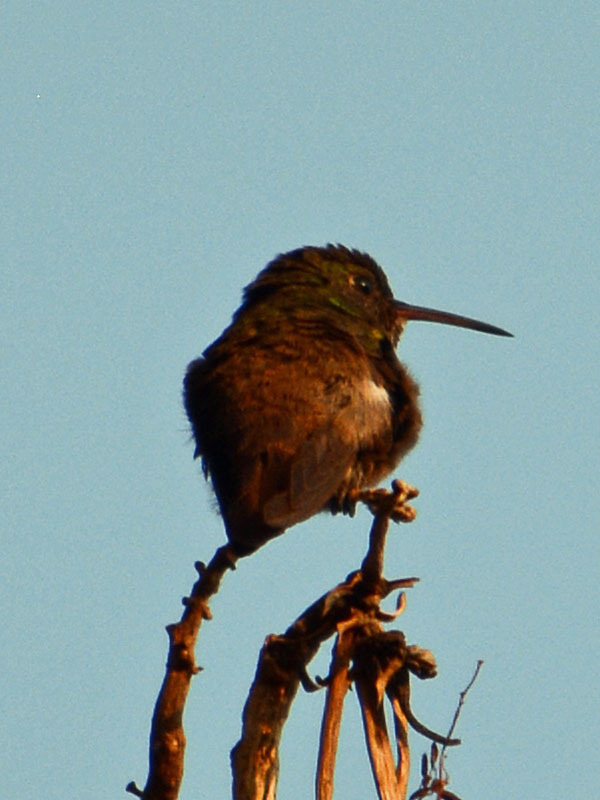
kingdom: Animalia
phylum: Chordata
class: Aves
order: Apodiformes
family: Trochilidae
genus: Saucerottia
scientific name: Saucerottia beryllina
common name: Berylline hummingbird
